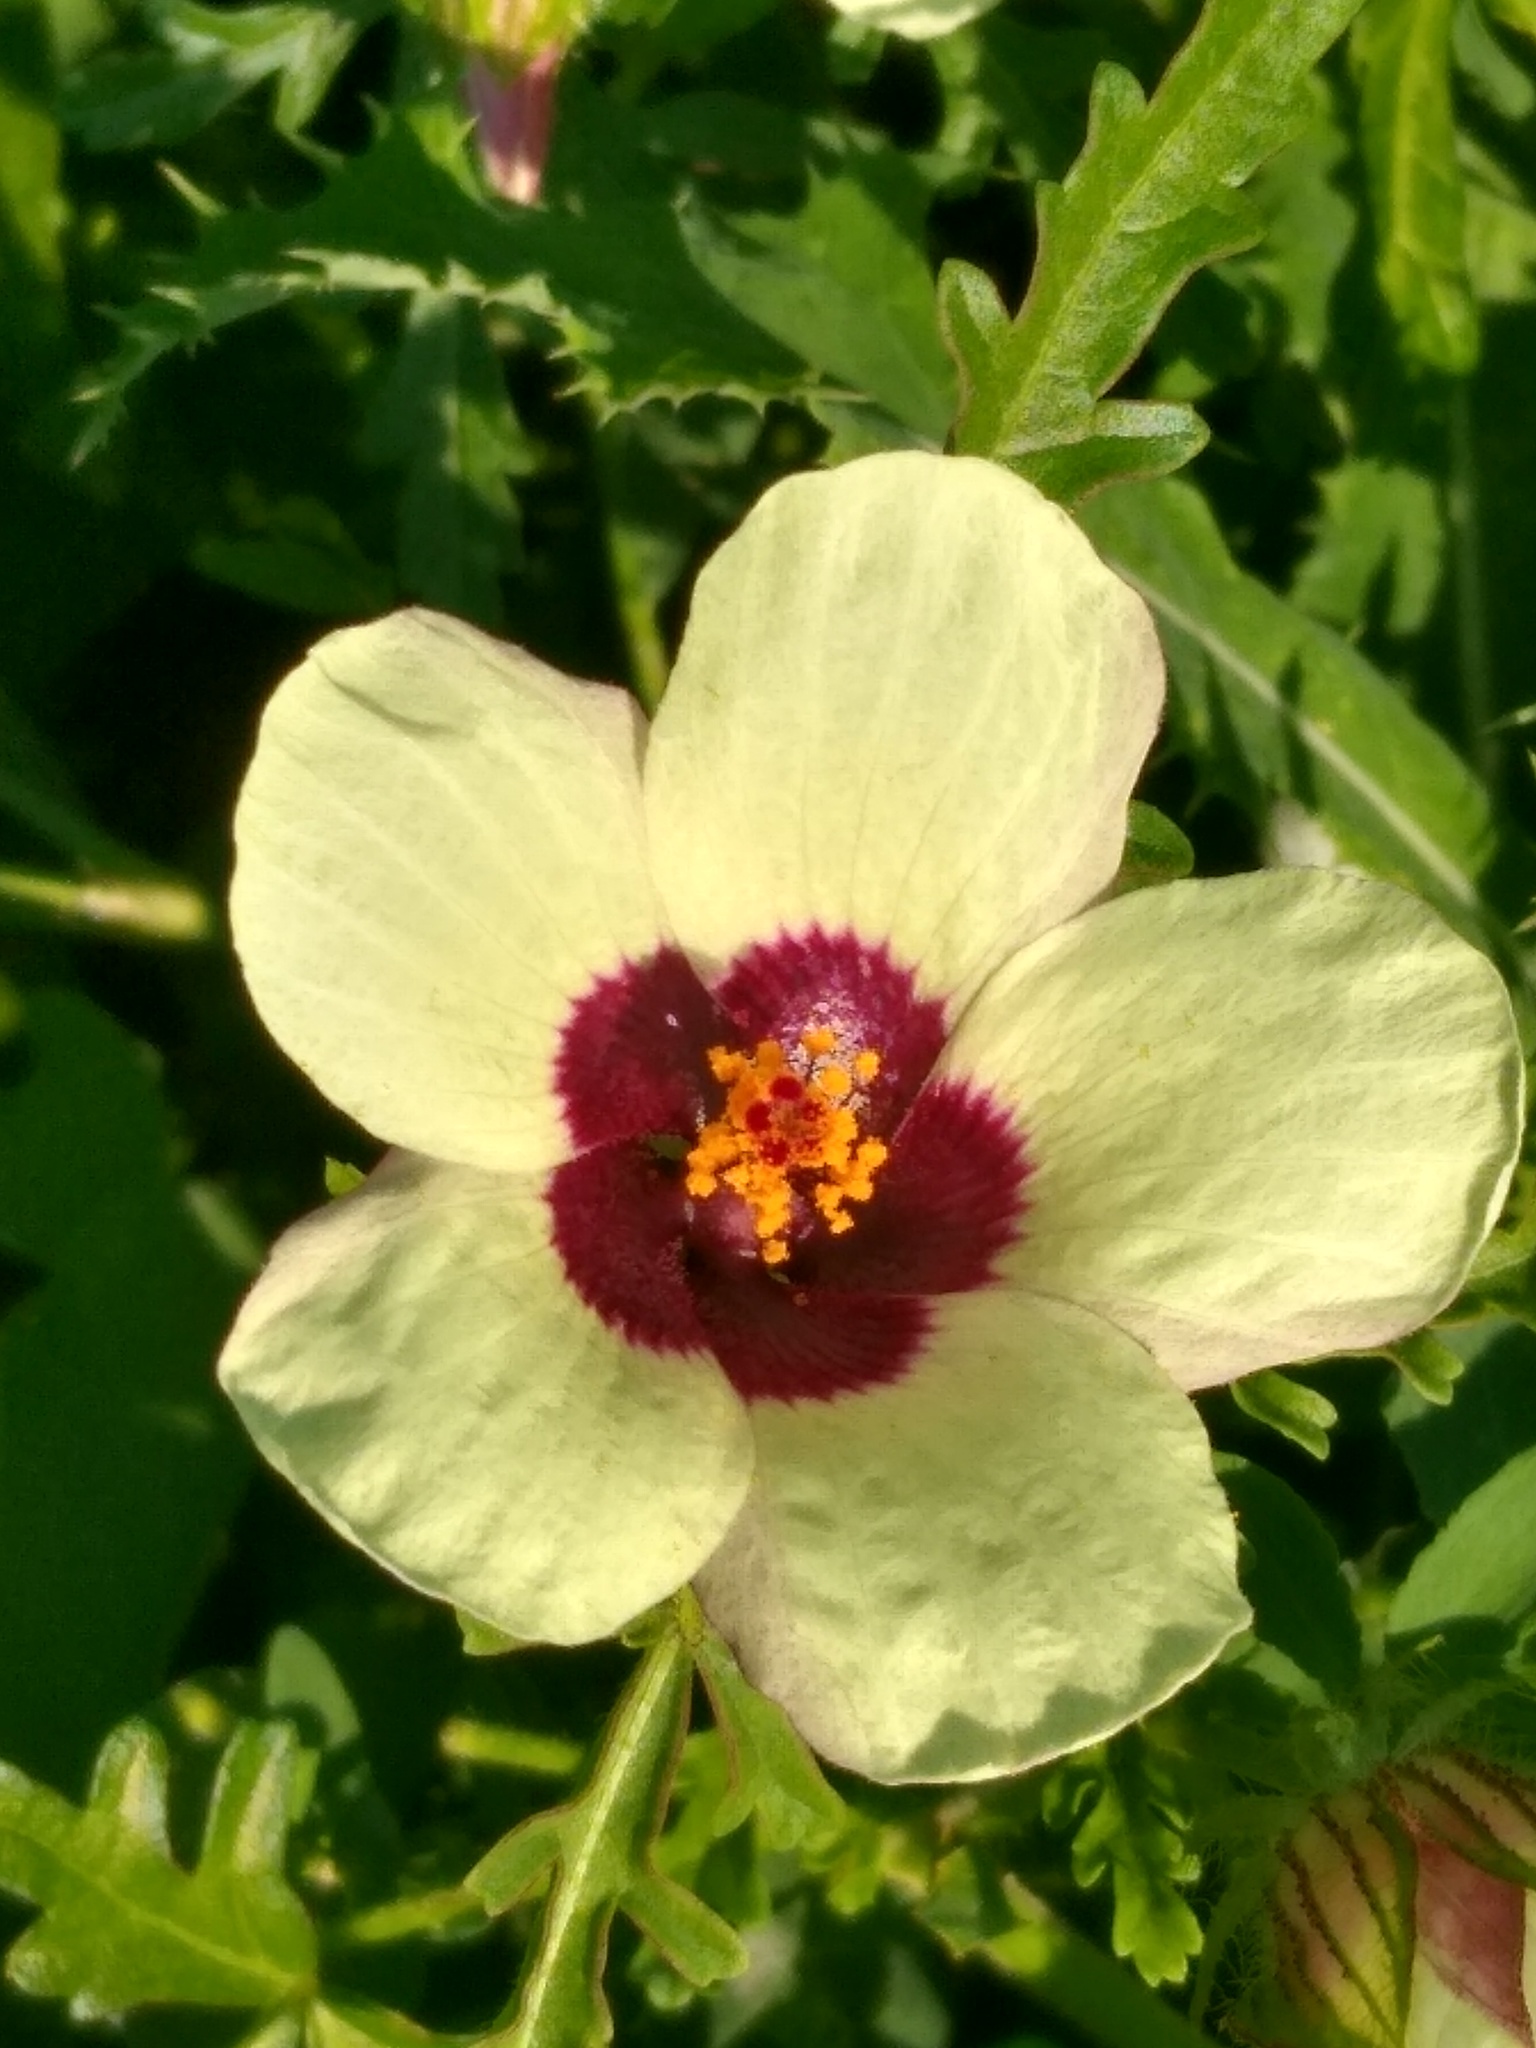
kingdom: Plantae
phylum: Tracheophyta
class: Magnoliopsida
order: Malvales
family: Malvaceae
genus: Hibiscus
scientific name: Hibiscus trionum
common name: Bladder ketmia
